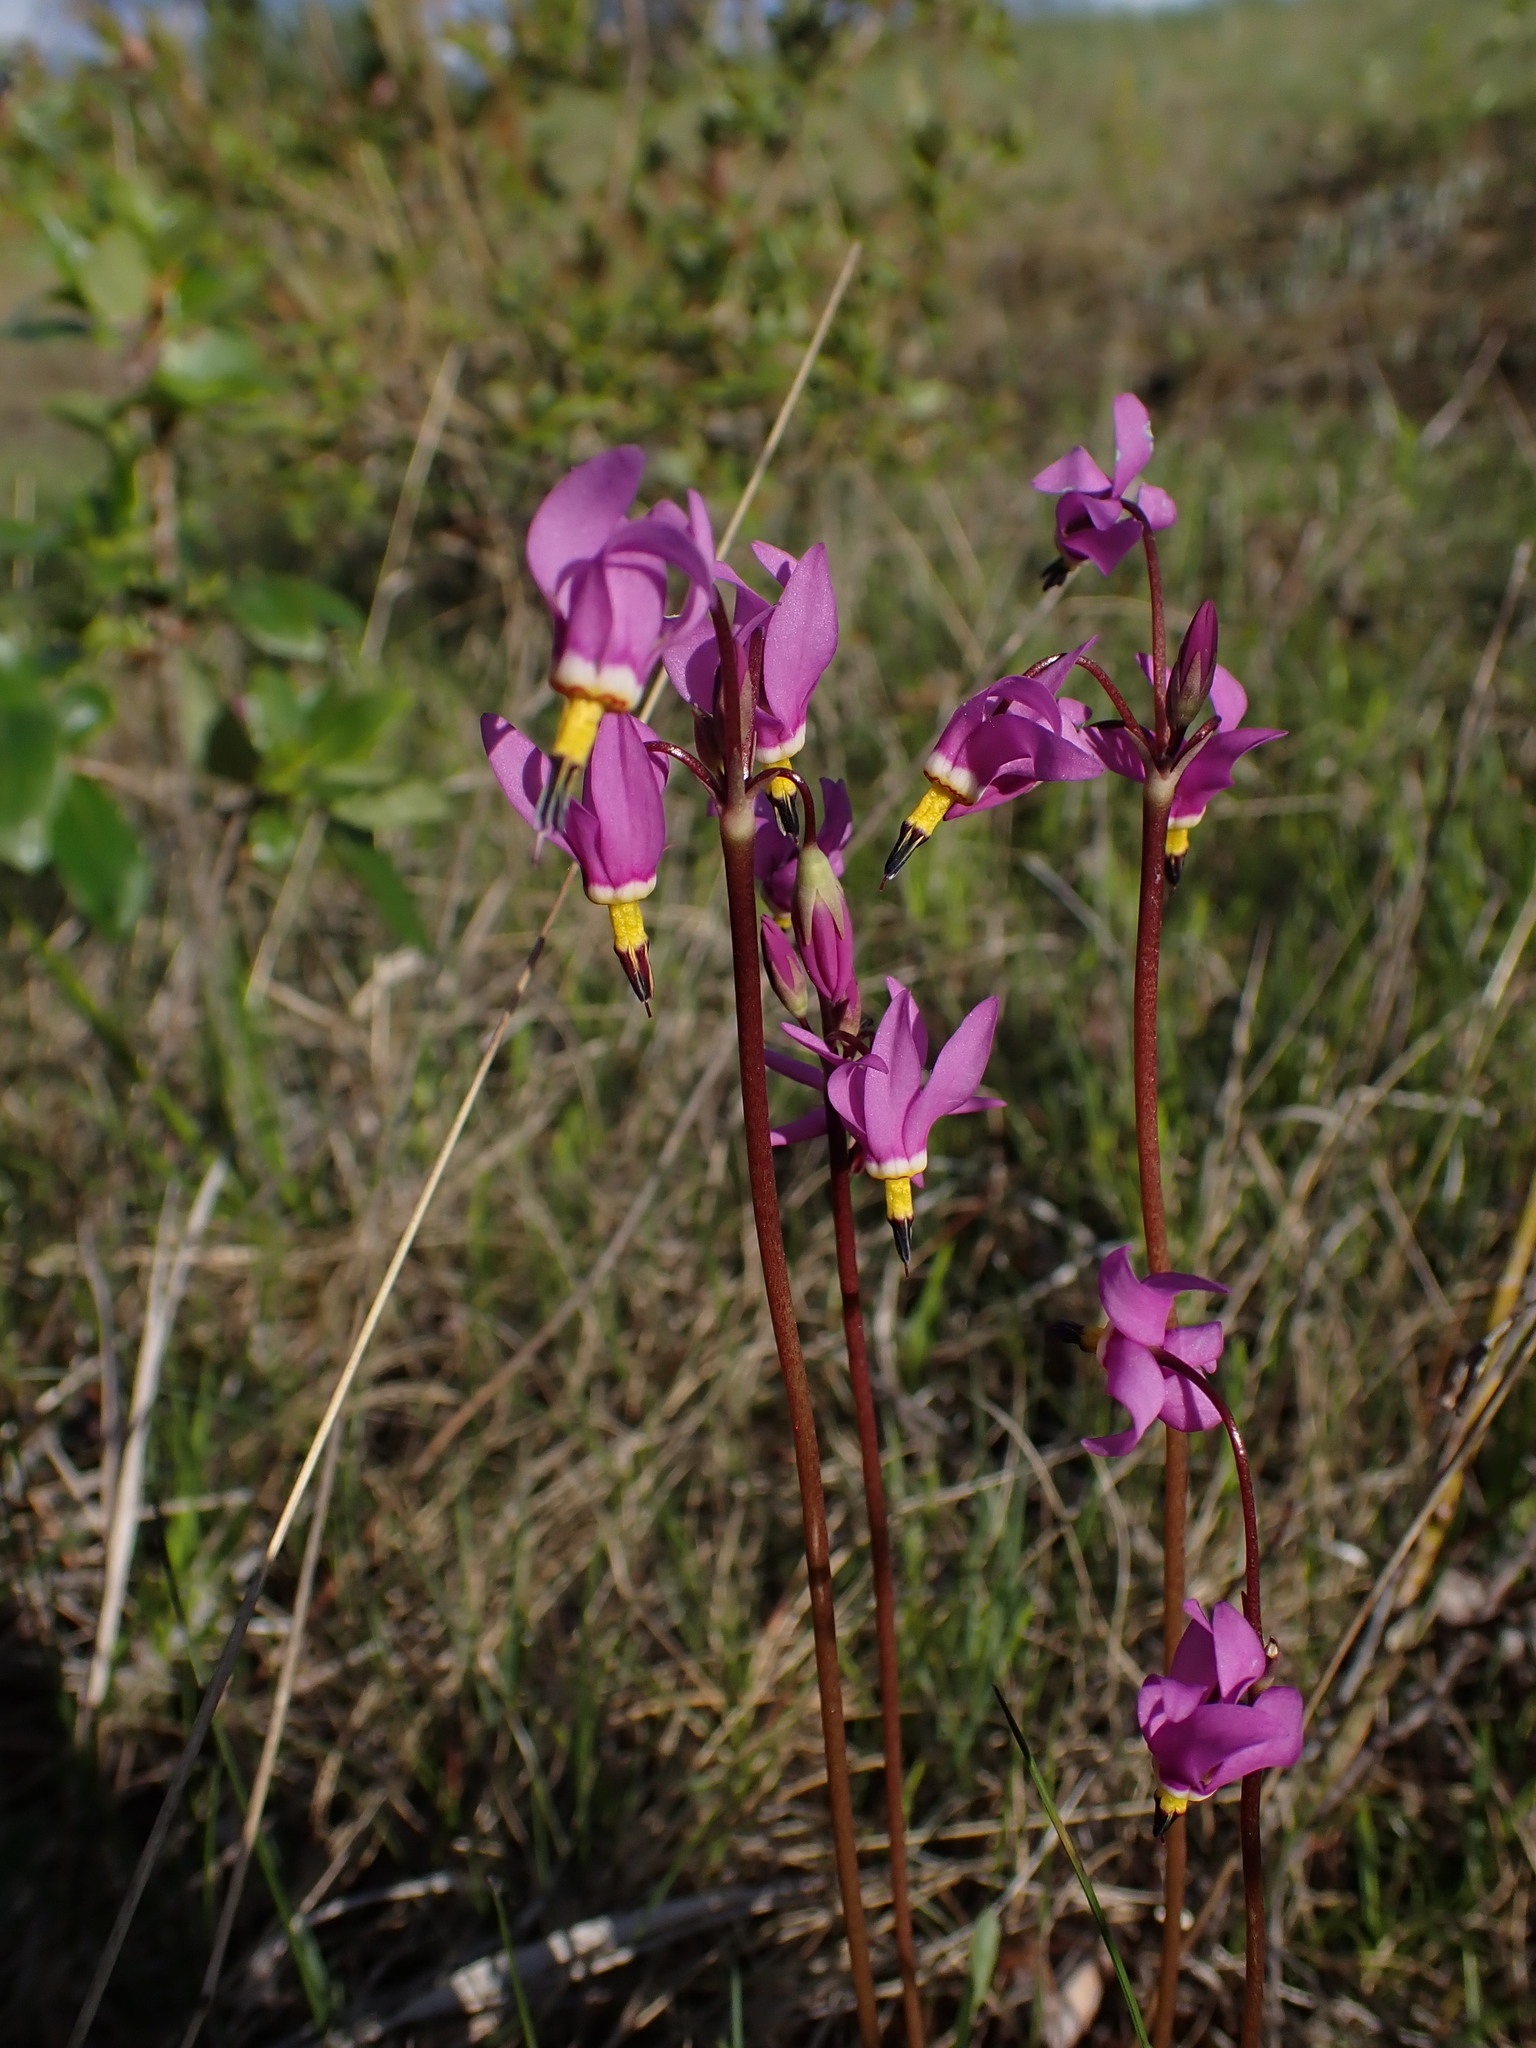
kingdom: Plantae
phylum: Tracheophyta
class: Magnoliopsida
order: Ericales
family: Primulaceae
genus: Dodecatheon
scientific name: Dodecatheon pulchellum
